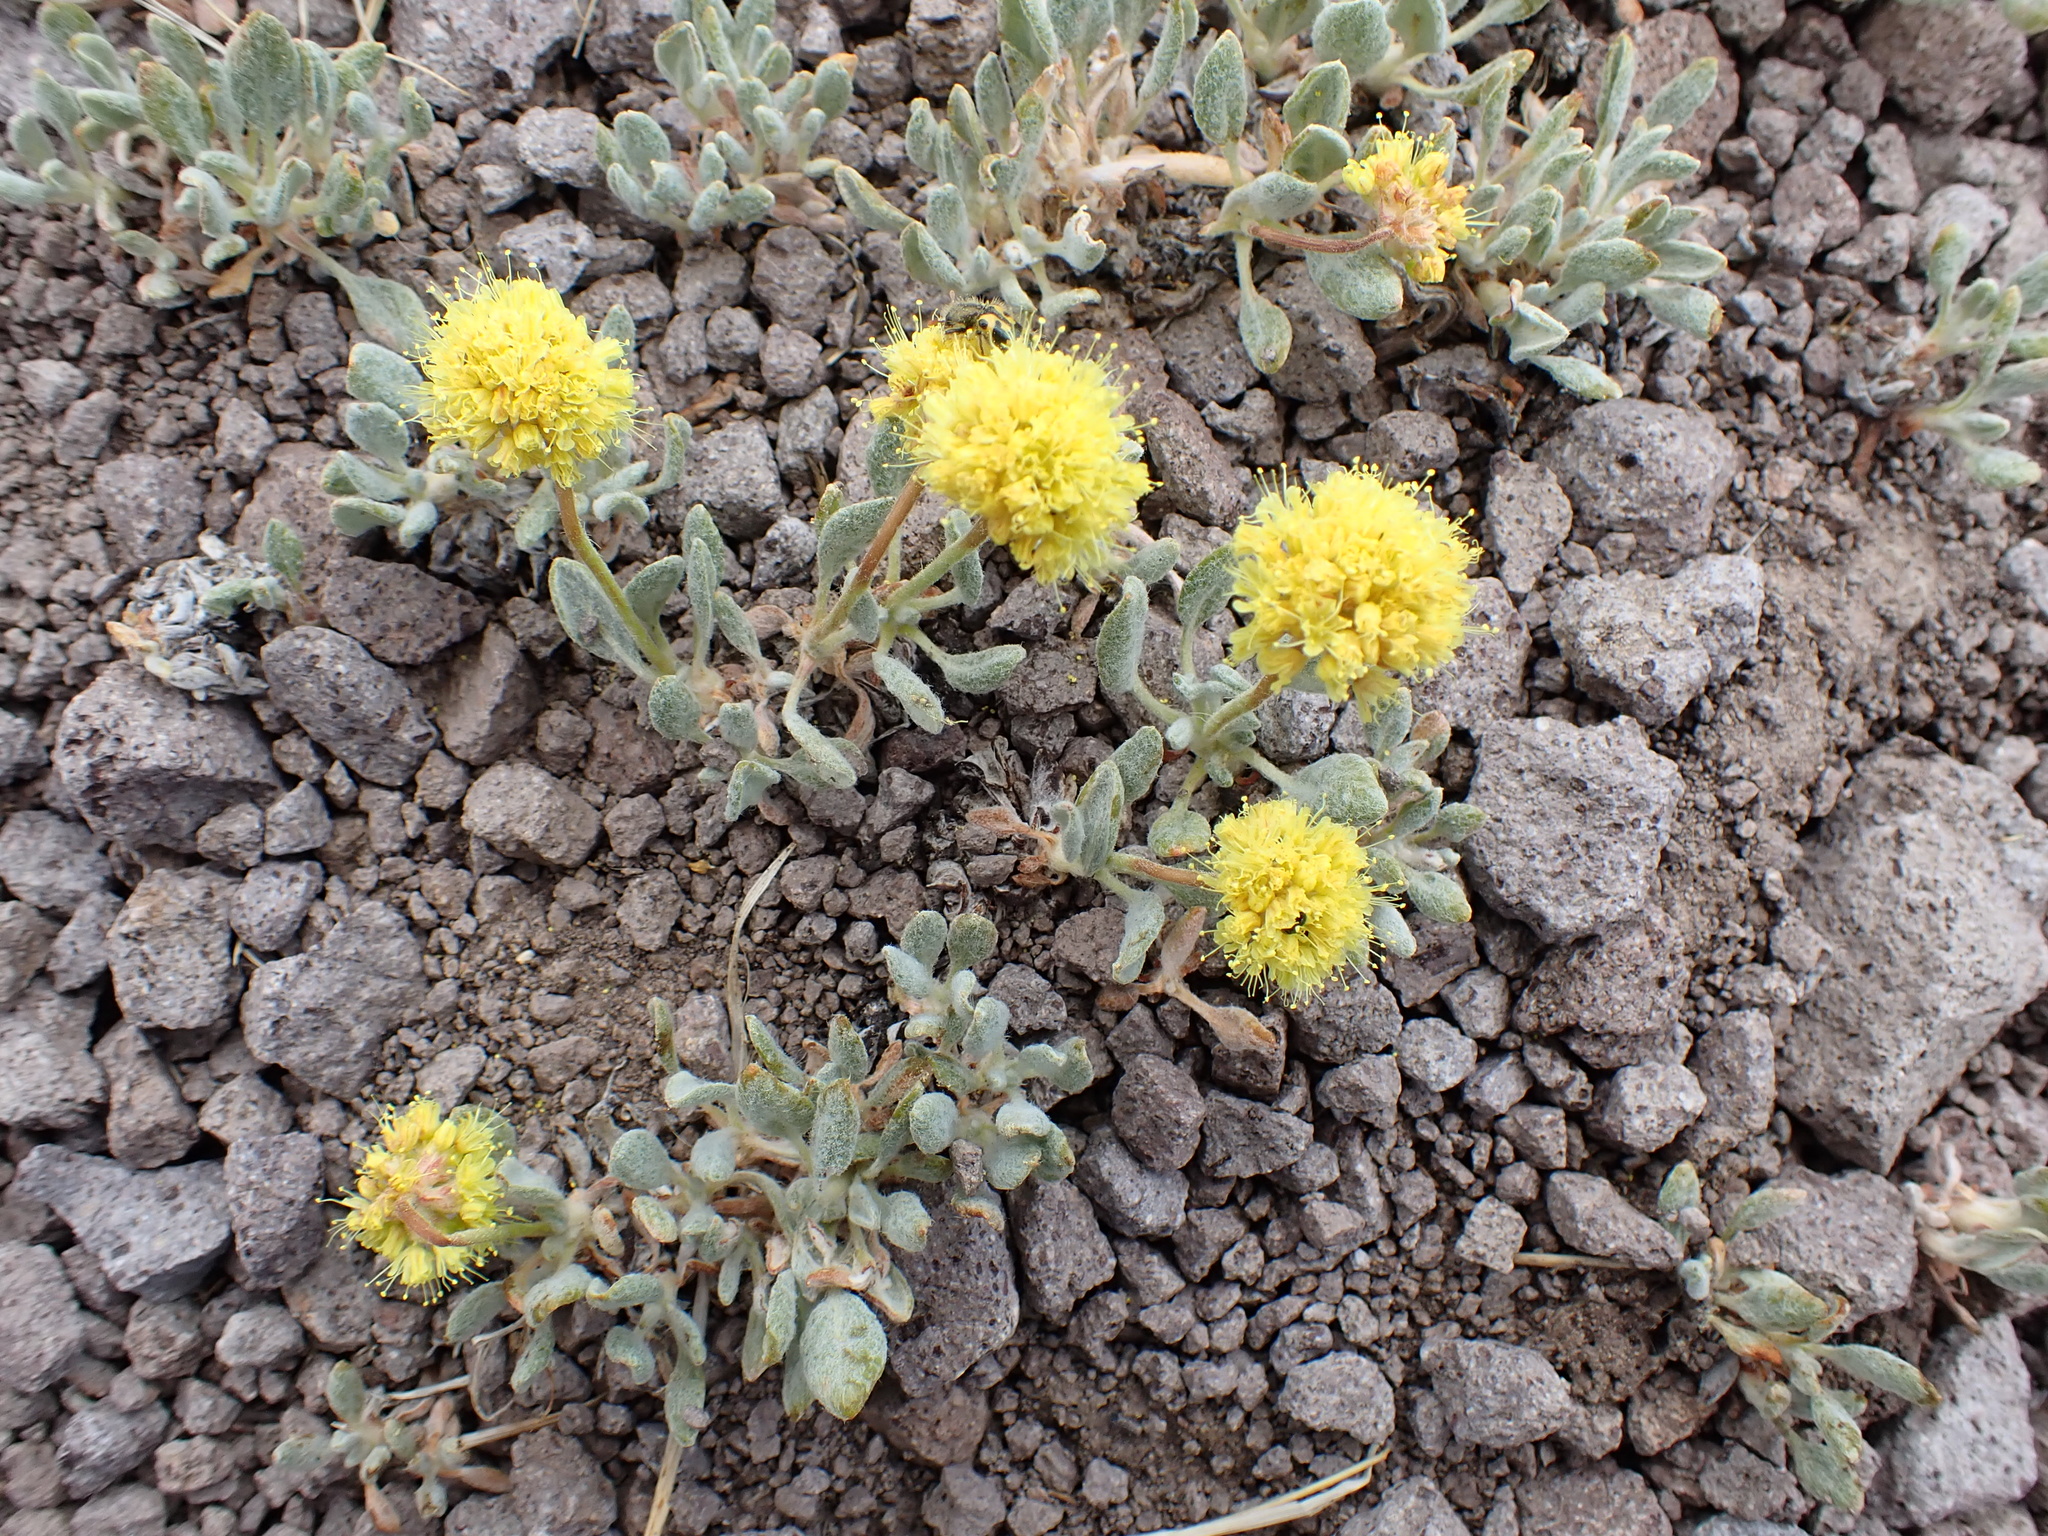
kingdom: Plantae
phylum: Tracheophyta
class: Magnoliopsida
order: Caryophyllales
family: Polygonaceae
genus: Eriogonum
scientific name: Eriogonum rosense
